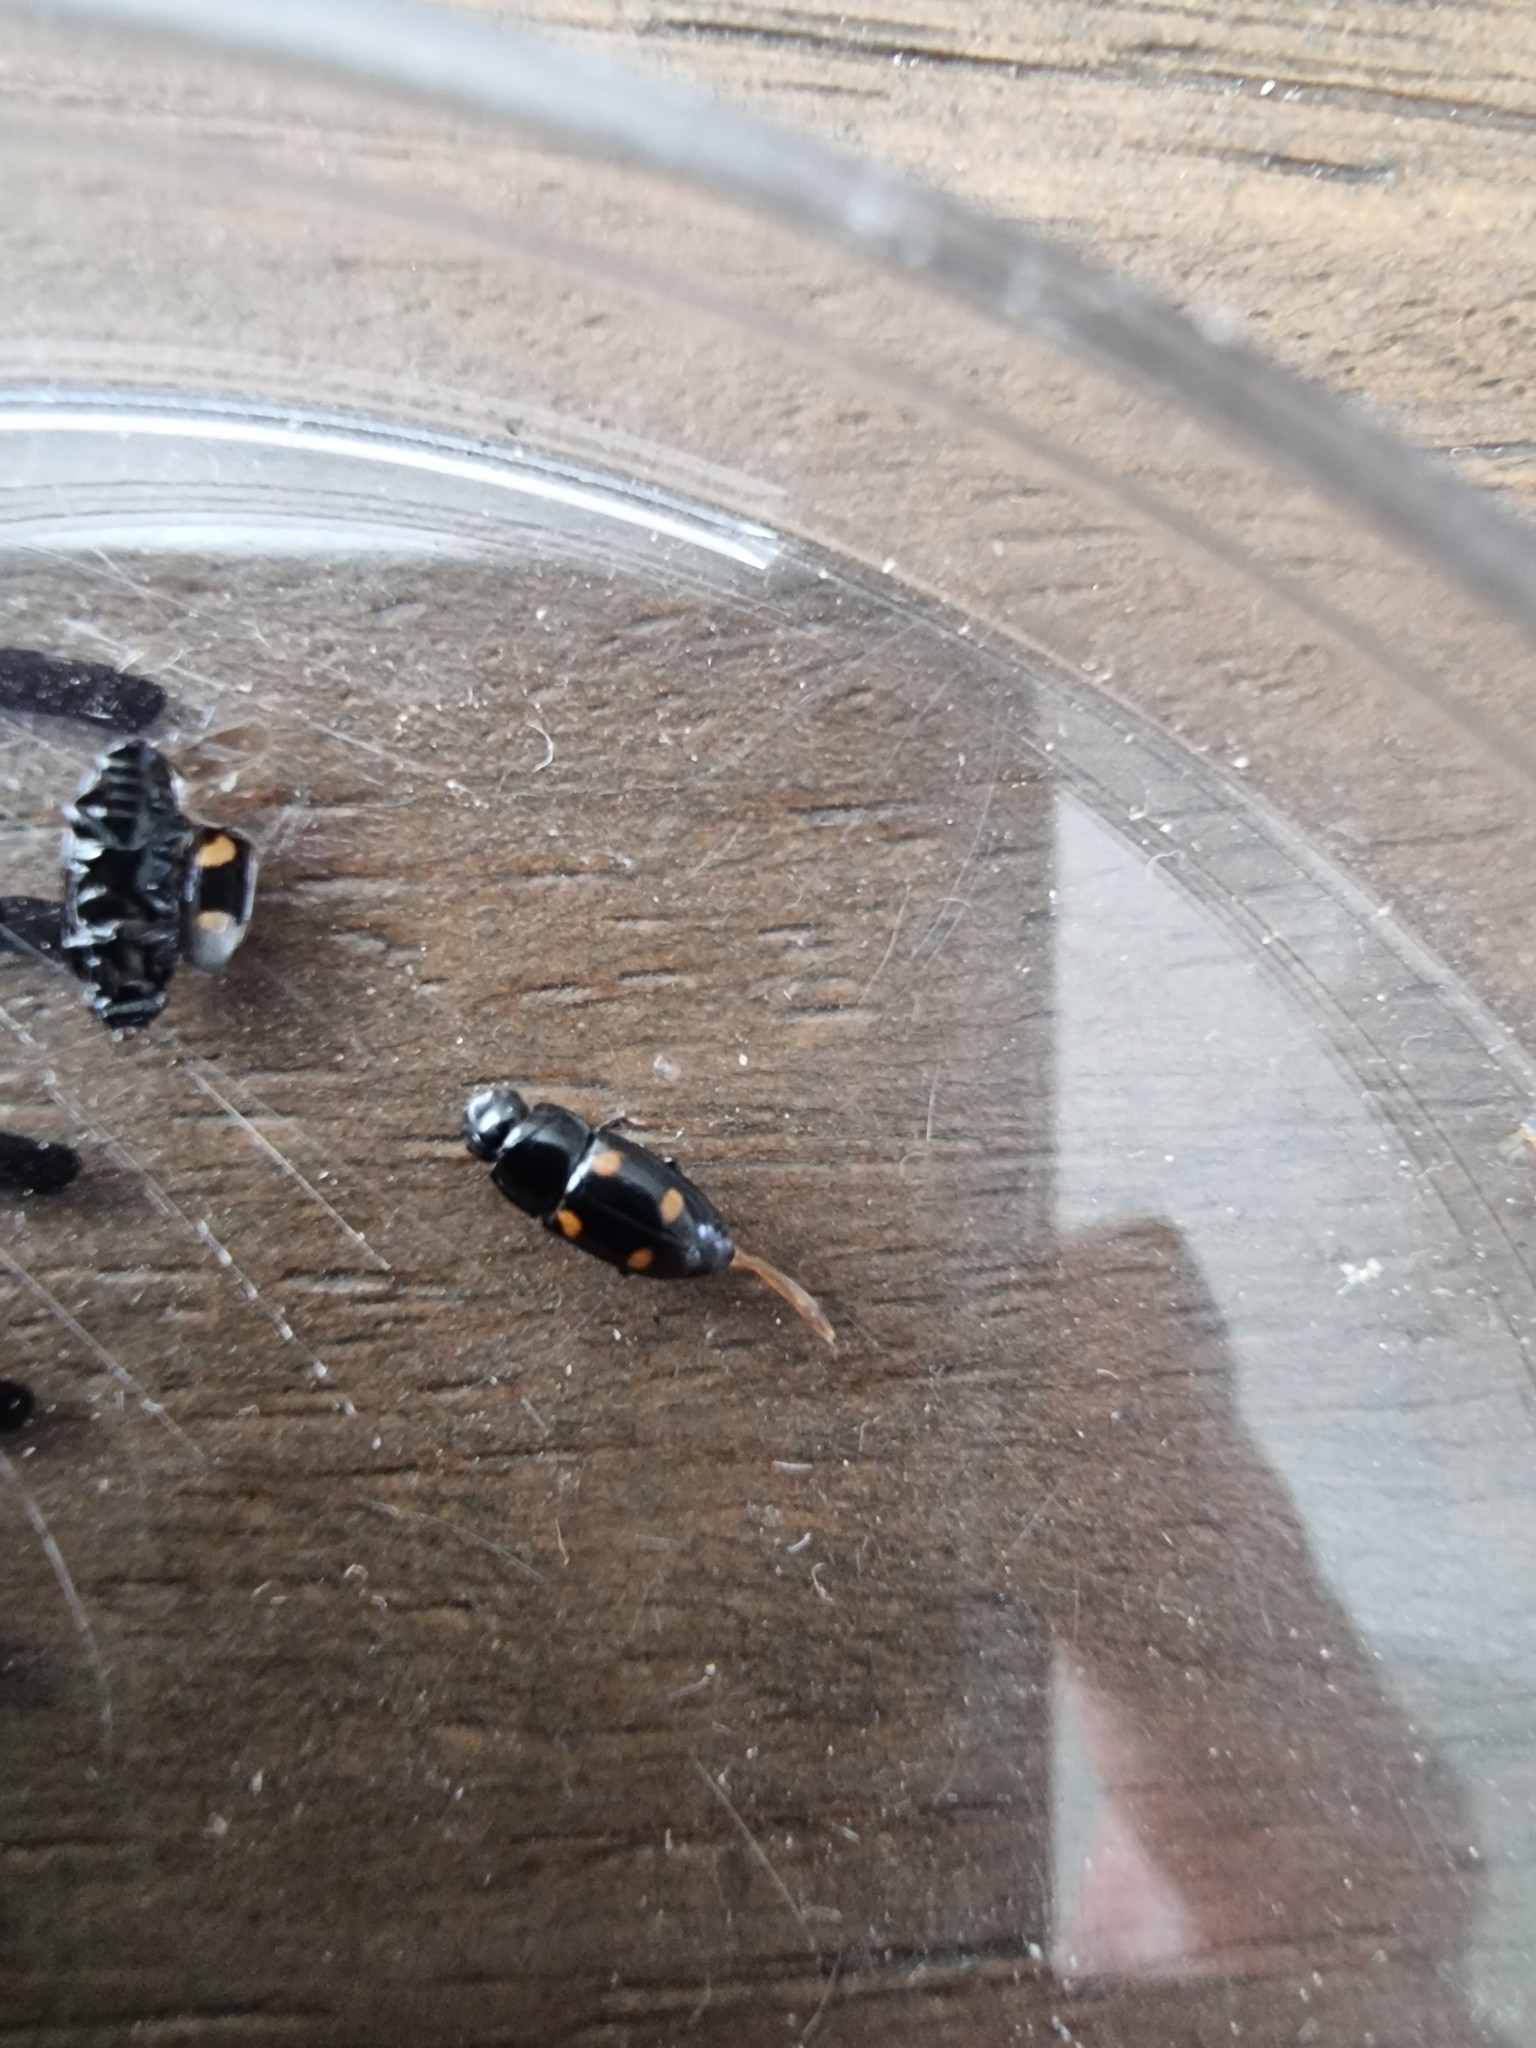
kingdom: Animalia
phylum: Arthropoda
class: Insecta
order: Coleoptera
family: Nitidulidae
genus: Glischrochilus
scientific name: Glischrochilus hortensis
